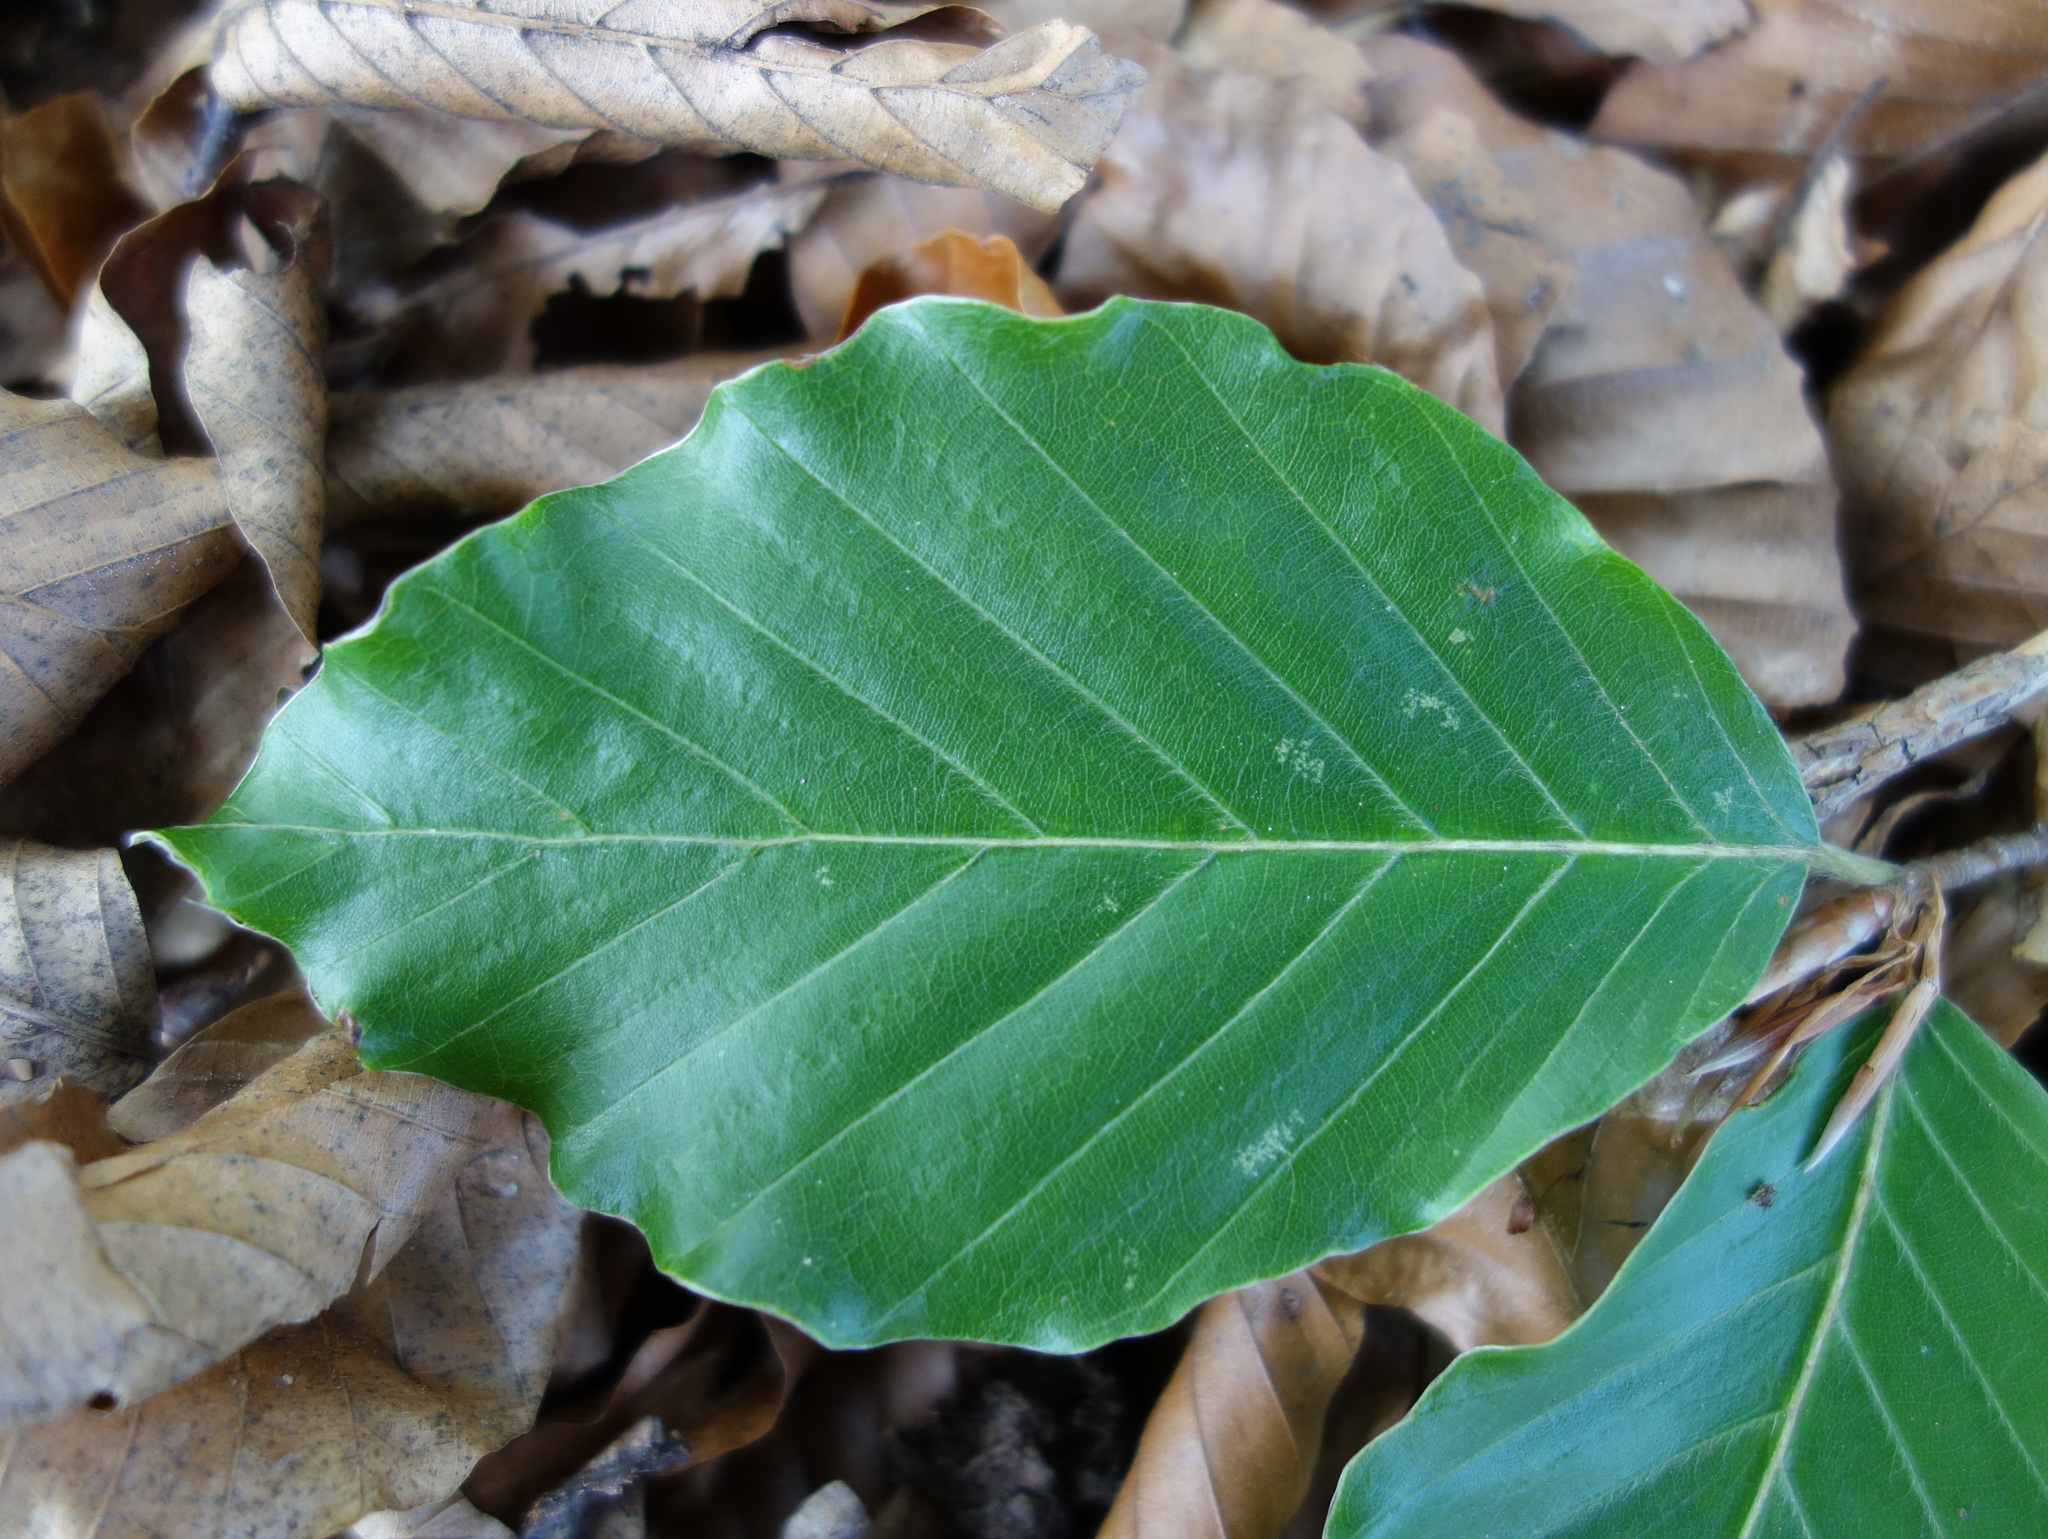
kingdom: Plantae
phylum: Tracheophyta
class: Magnoliopsida
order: Fagales
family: Fagaceae
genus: Fagus
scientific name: Fagus sylvatica
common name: Beech
